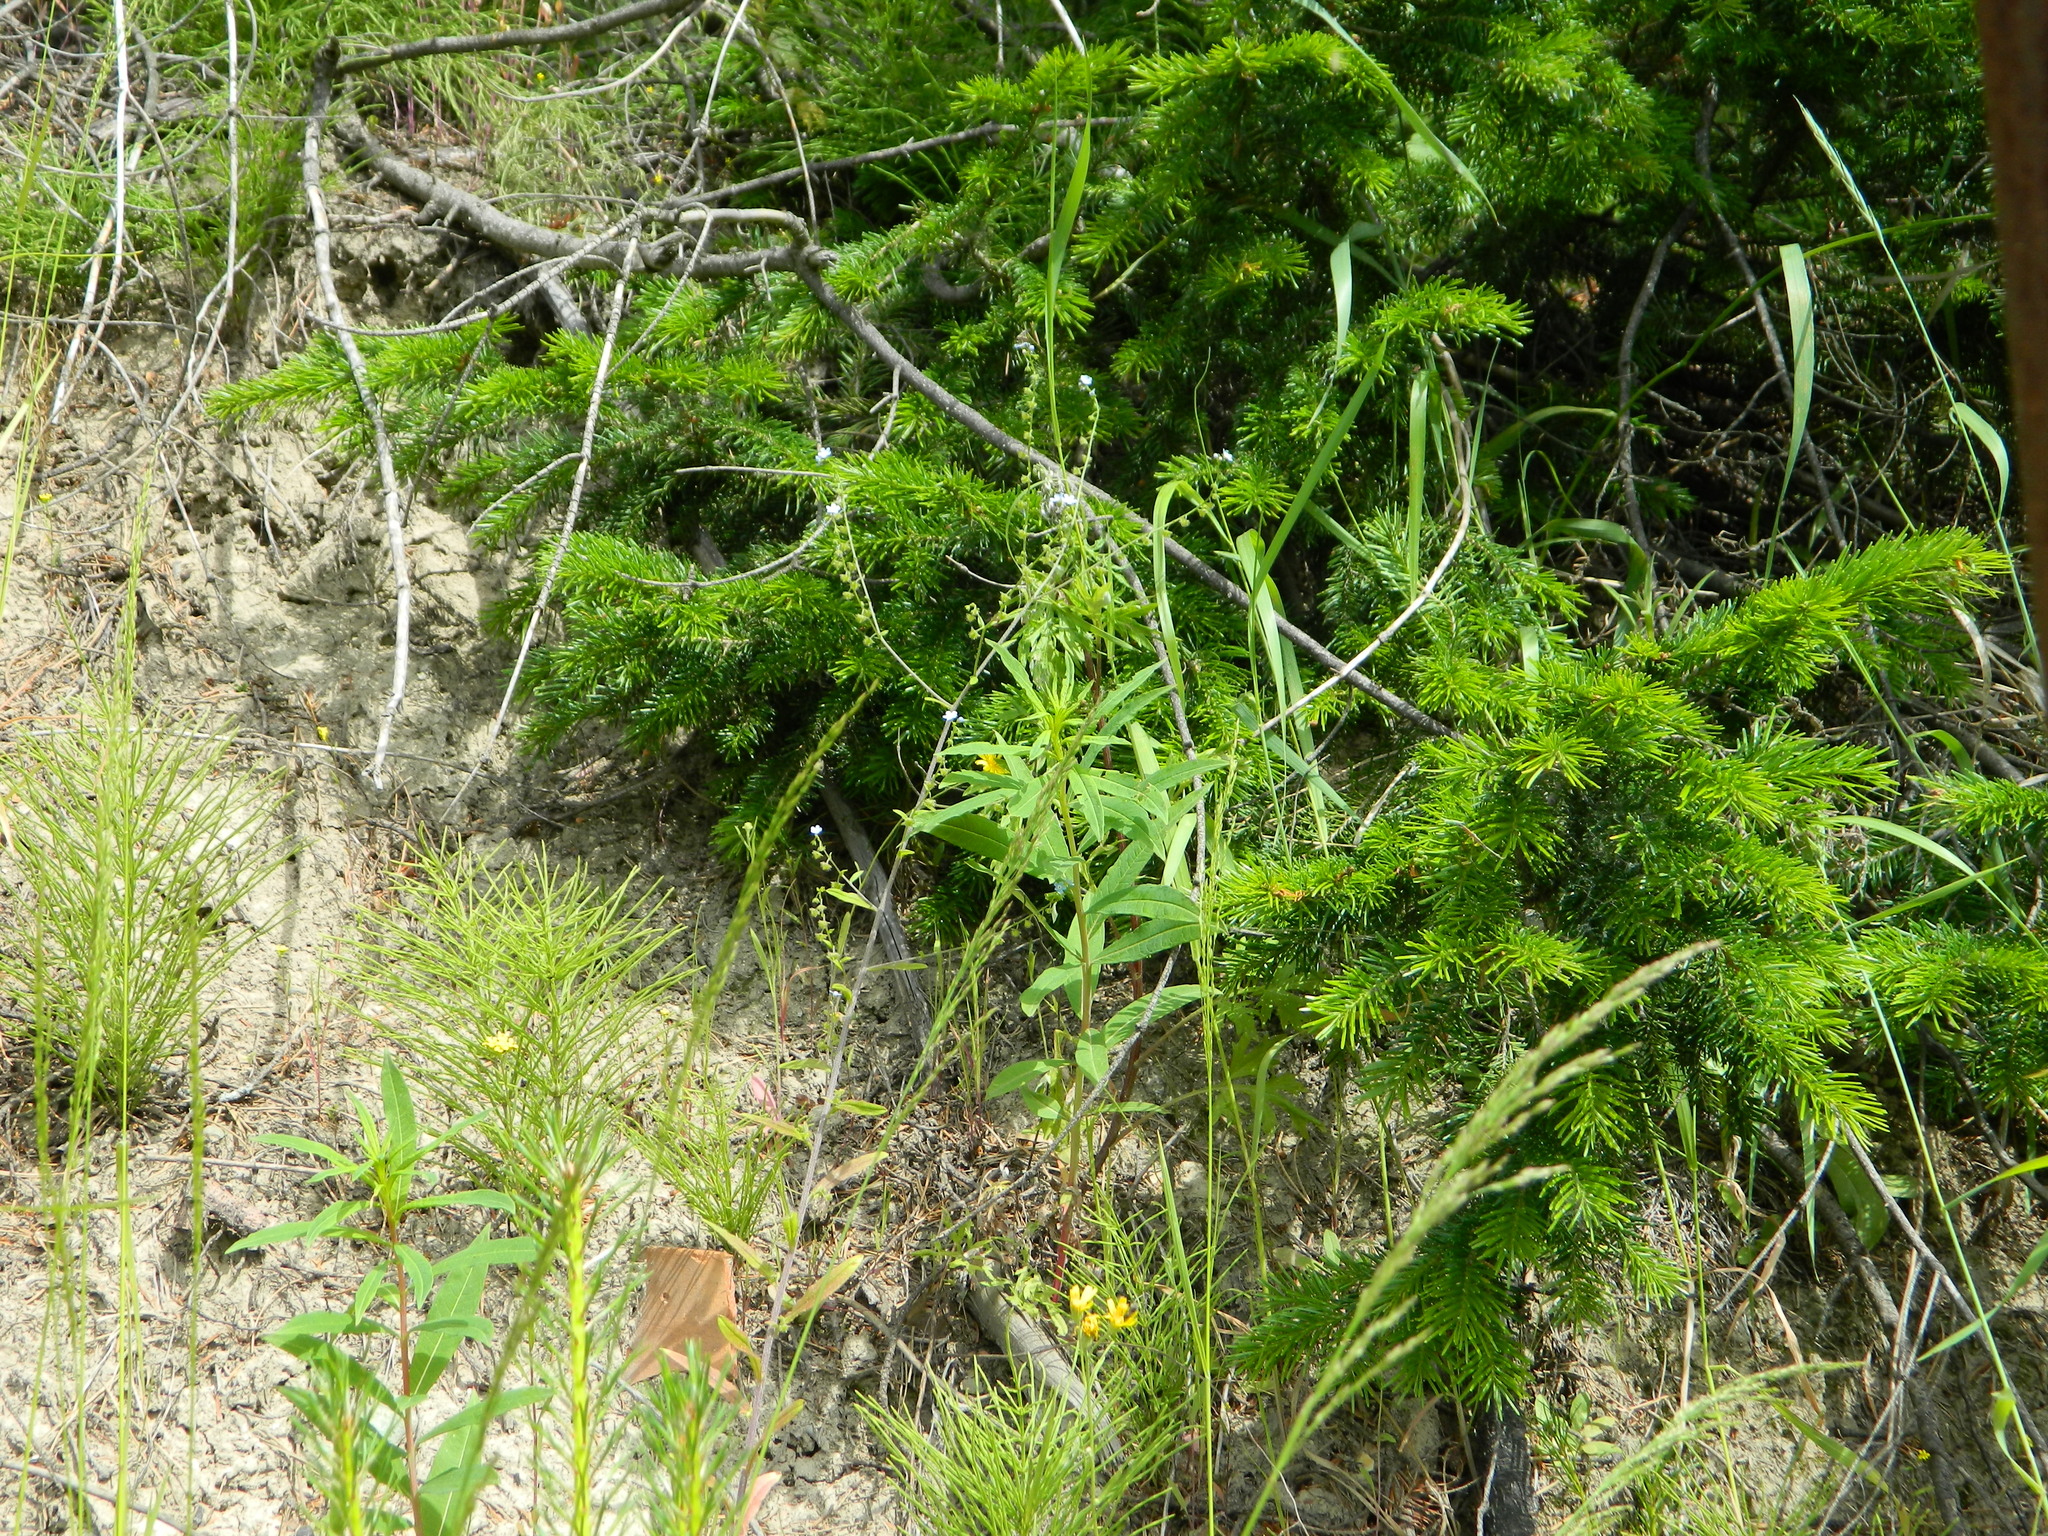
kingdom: Plantae
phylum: Tracheophyta
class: Magnoliopsida
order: Boraginales
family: Boraginaceae
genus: Hackelia
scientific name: Hackelia deflexa
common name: Nodding stickseed
